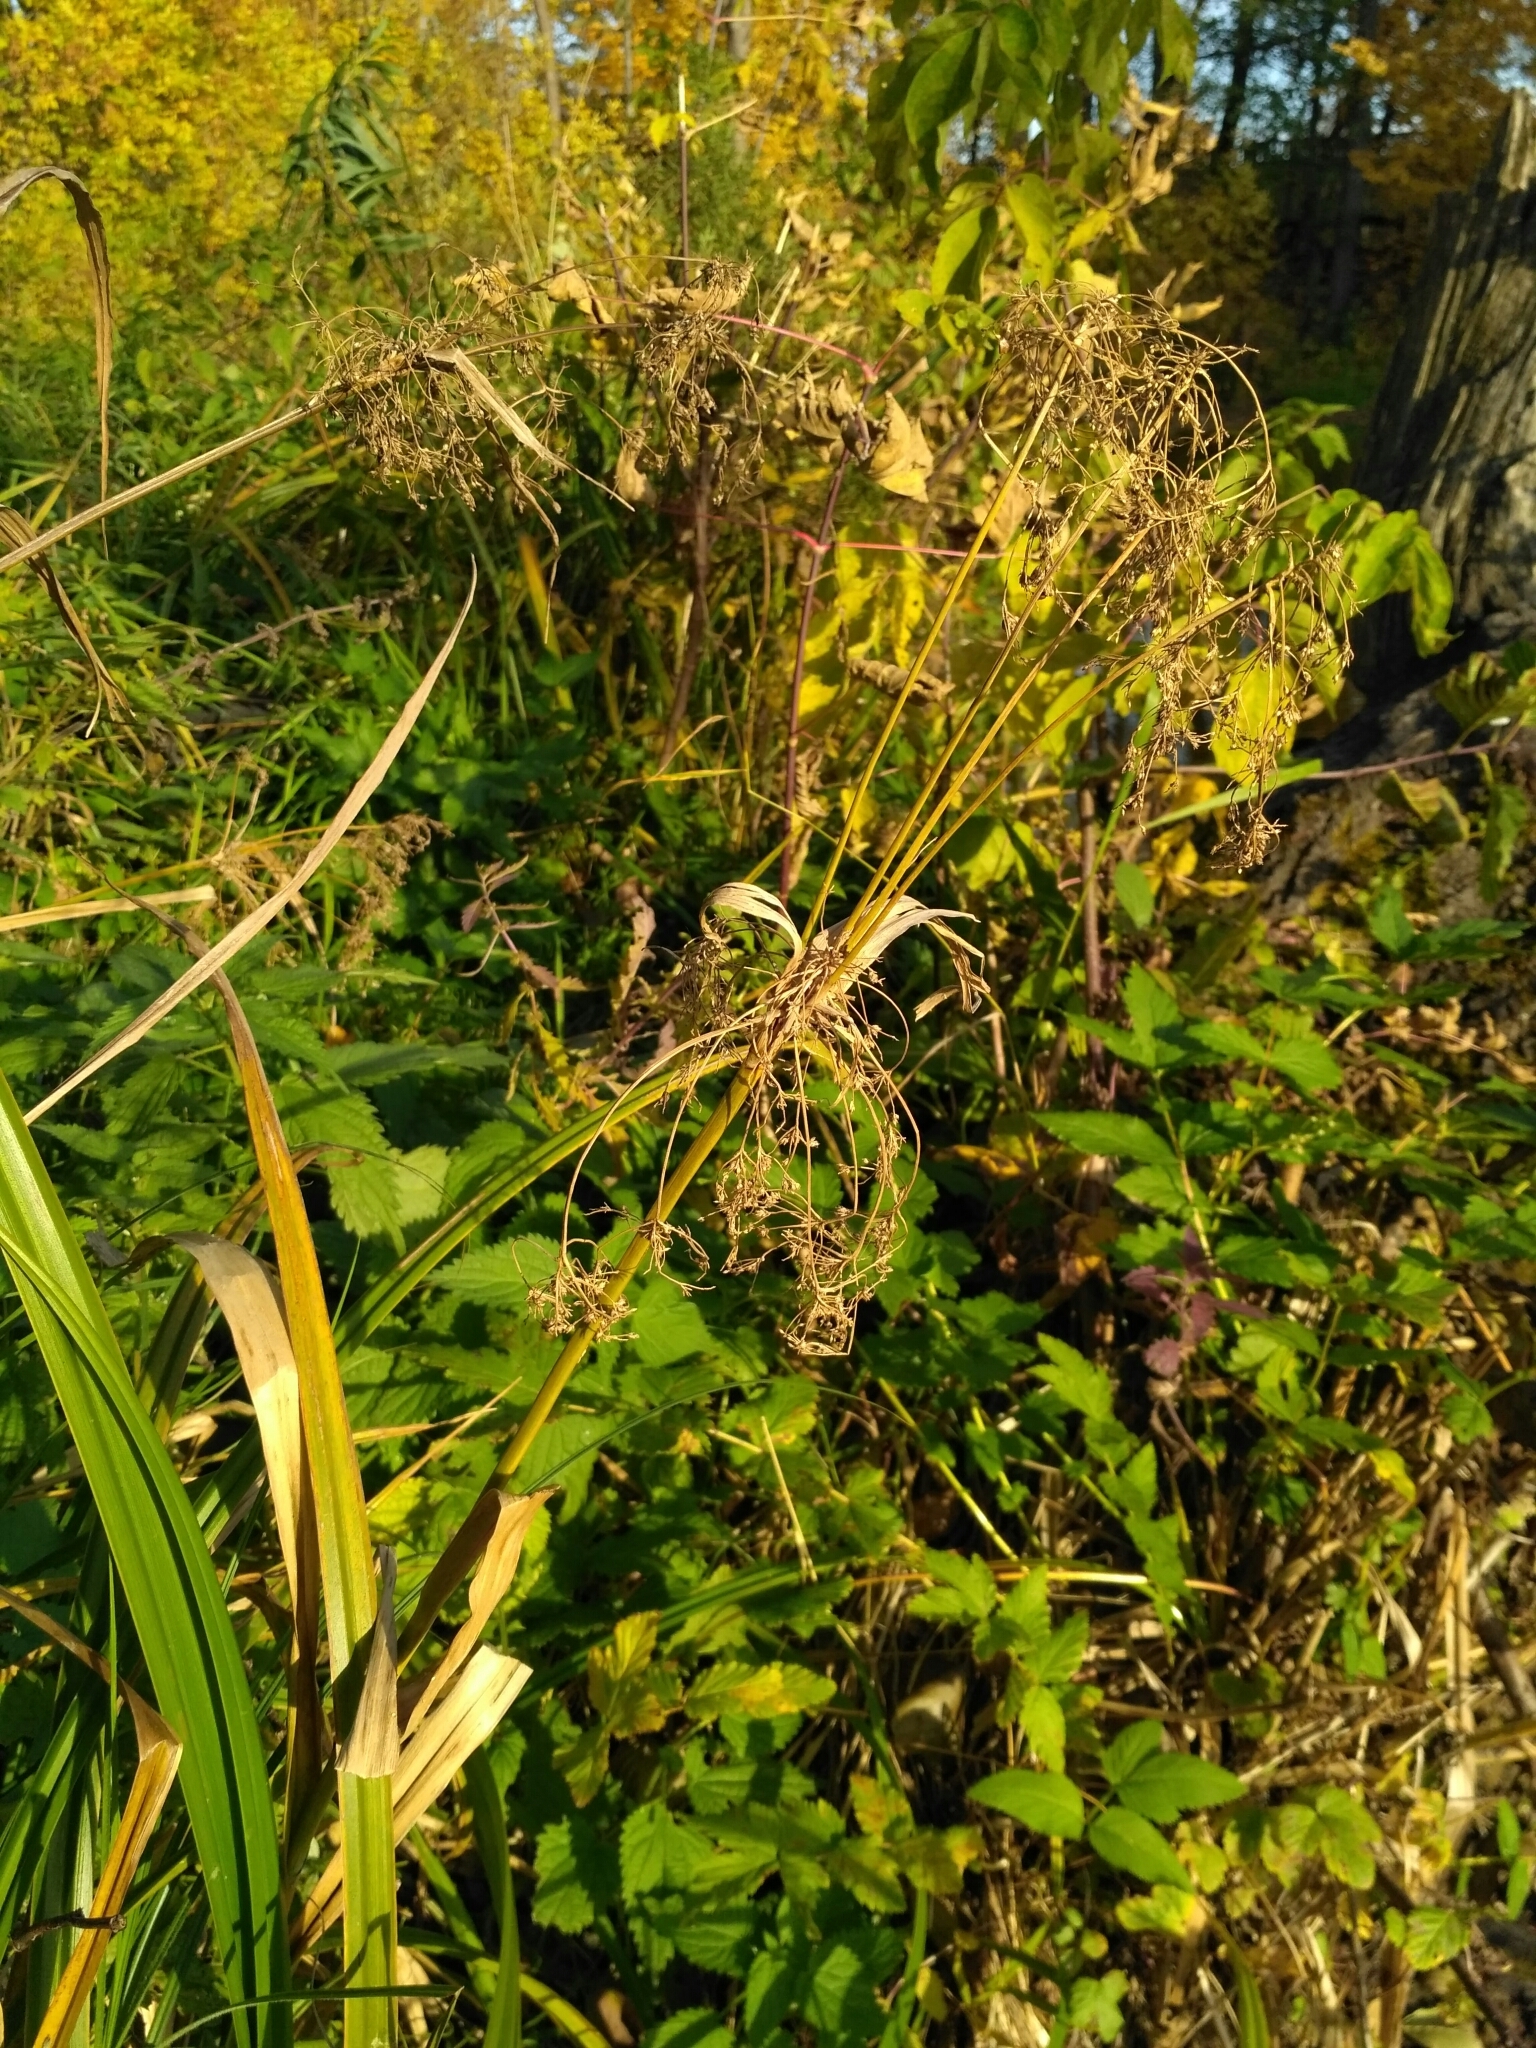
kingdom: Plantae
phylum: Tracheophyta
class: Liliopsida
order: Poales
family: Cyperaceae
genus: Scirpus
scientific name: Scirpus sylvaticus
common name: Wood club-rush
